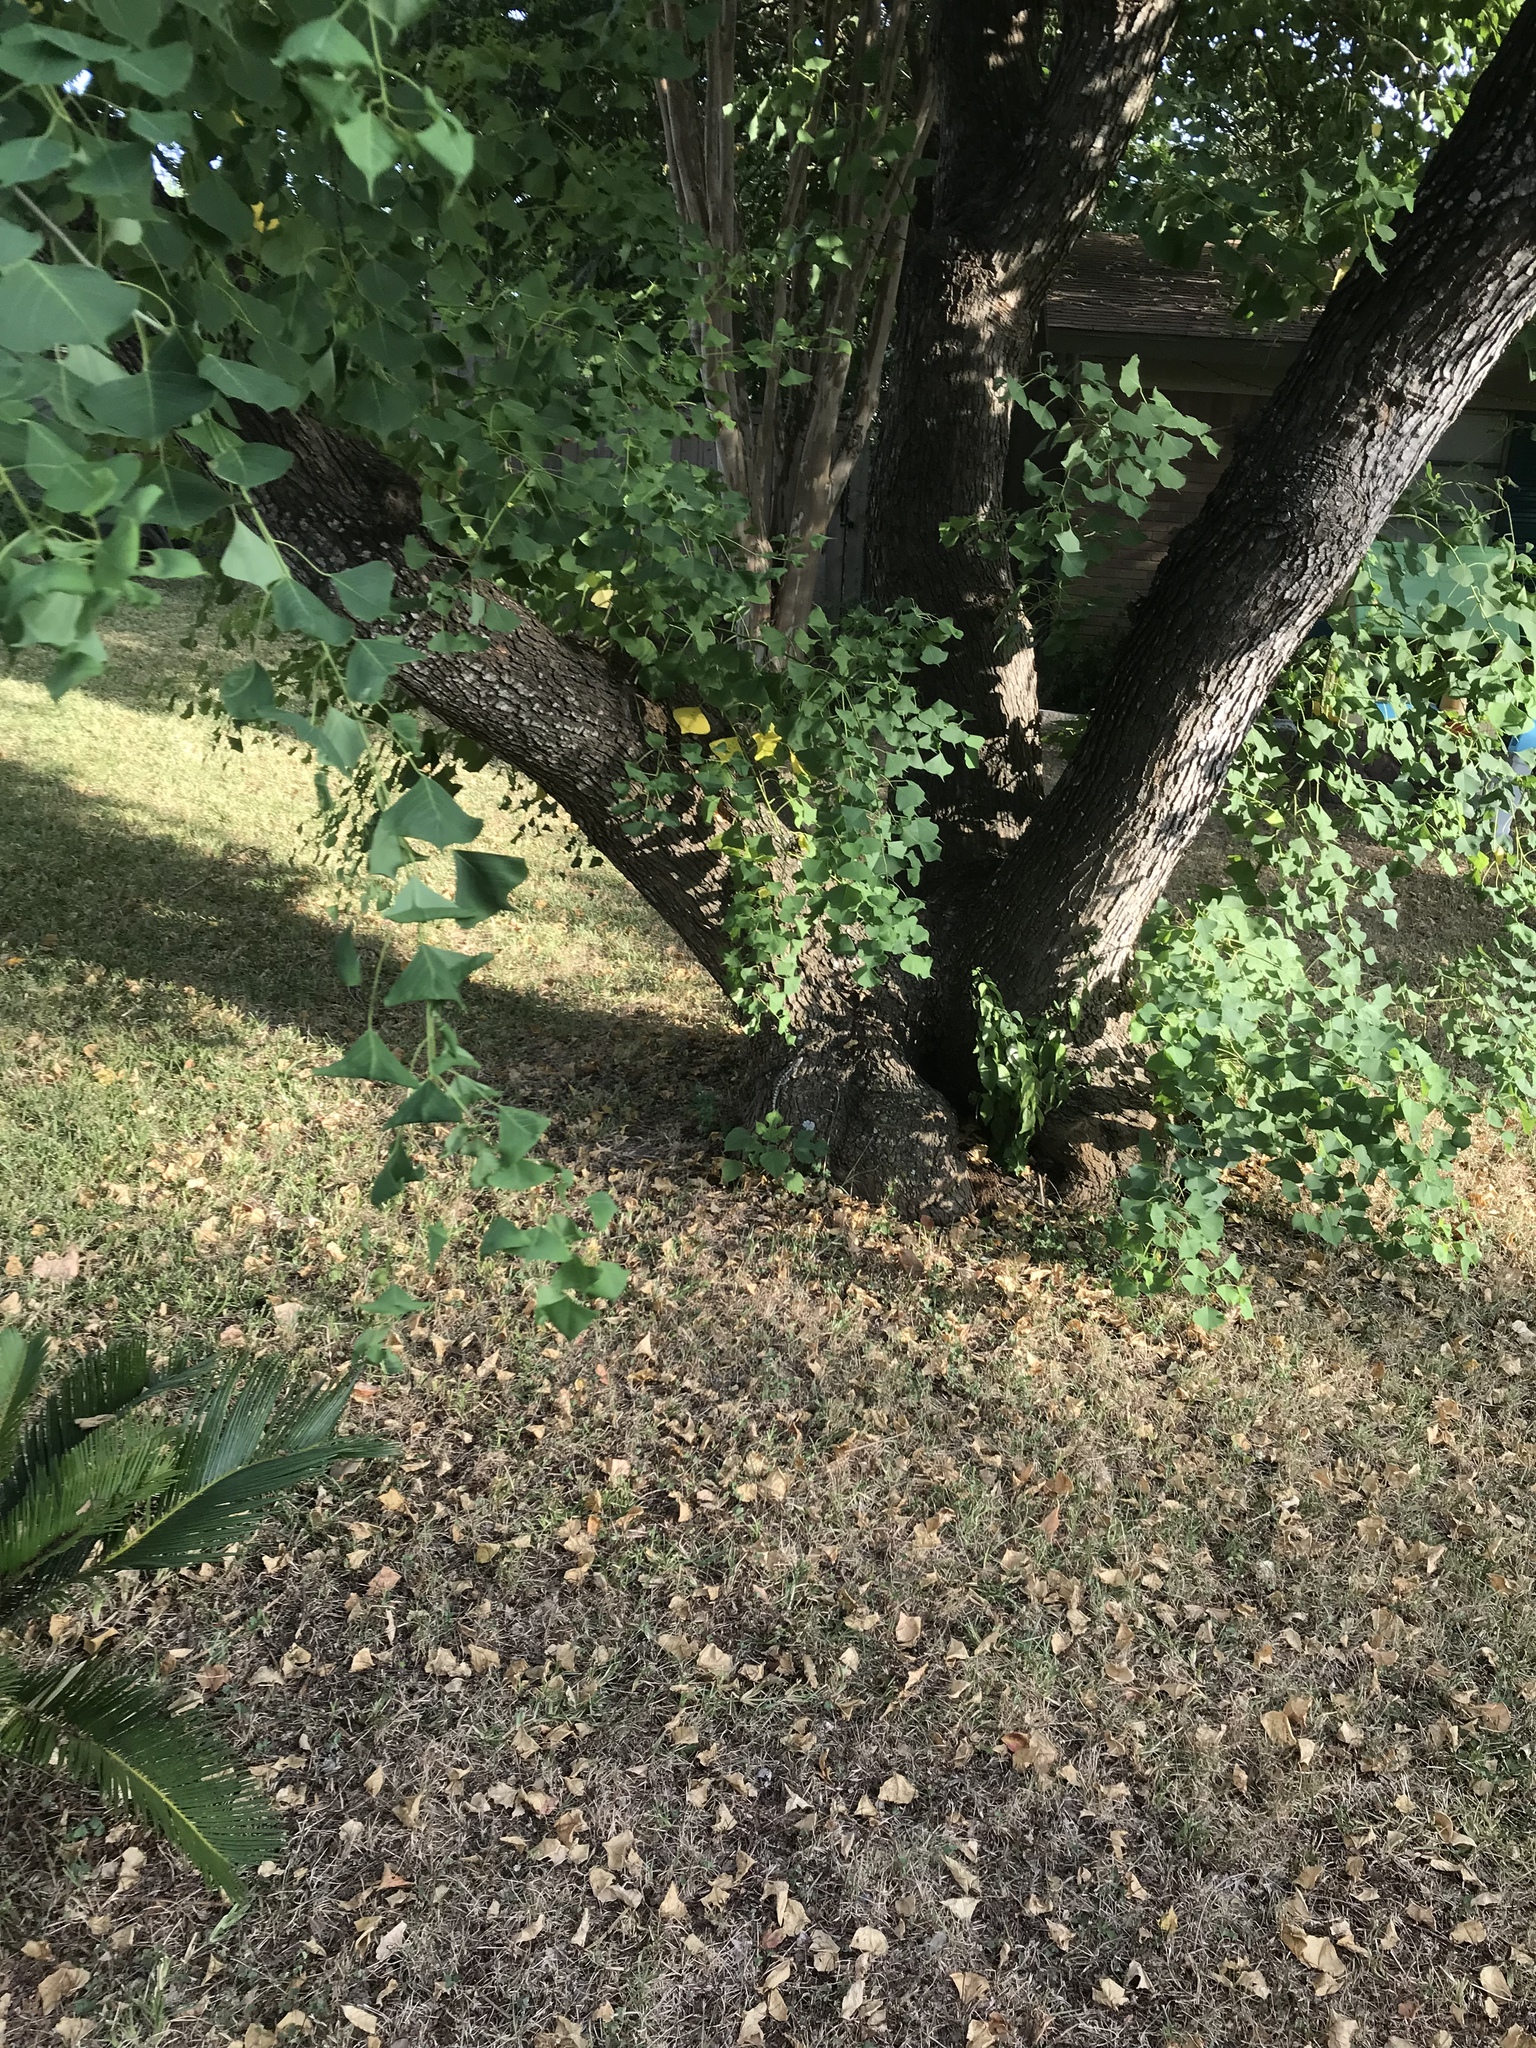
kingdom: Animalia
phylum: Chordata
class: Squamata
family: Phrynosomatidae
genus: Sceloporus
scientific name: Sceloporus olivaceus
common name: Texas spiny lizard
